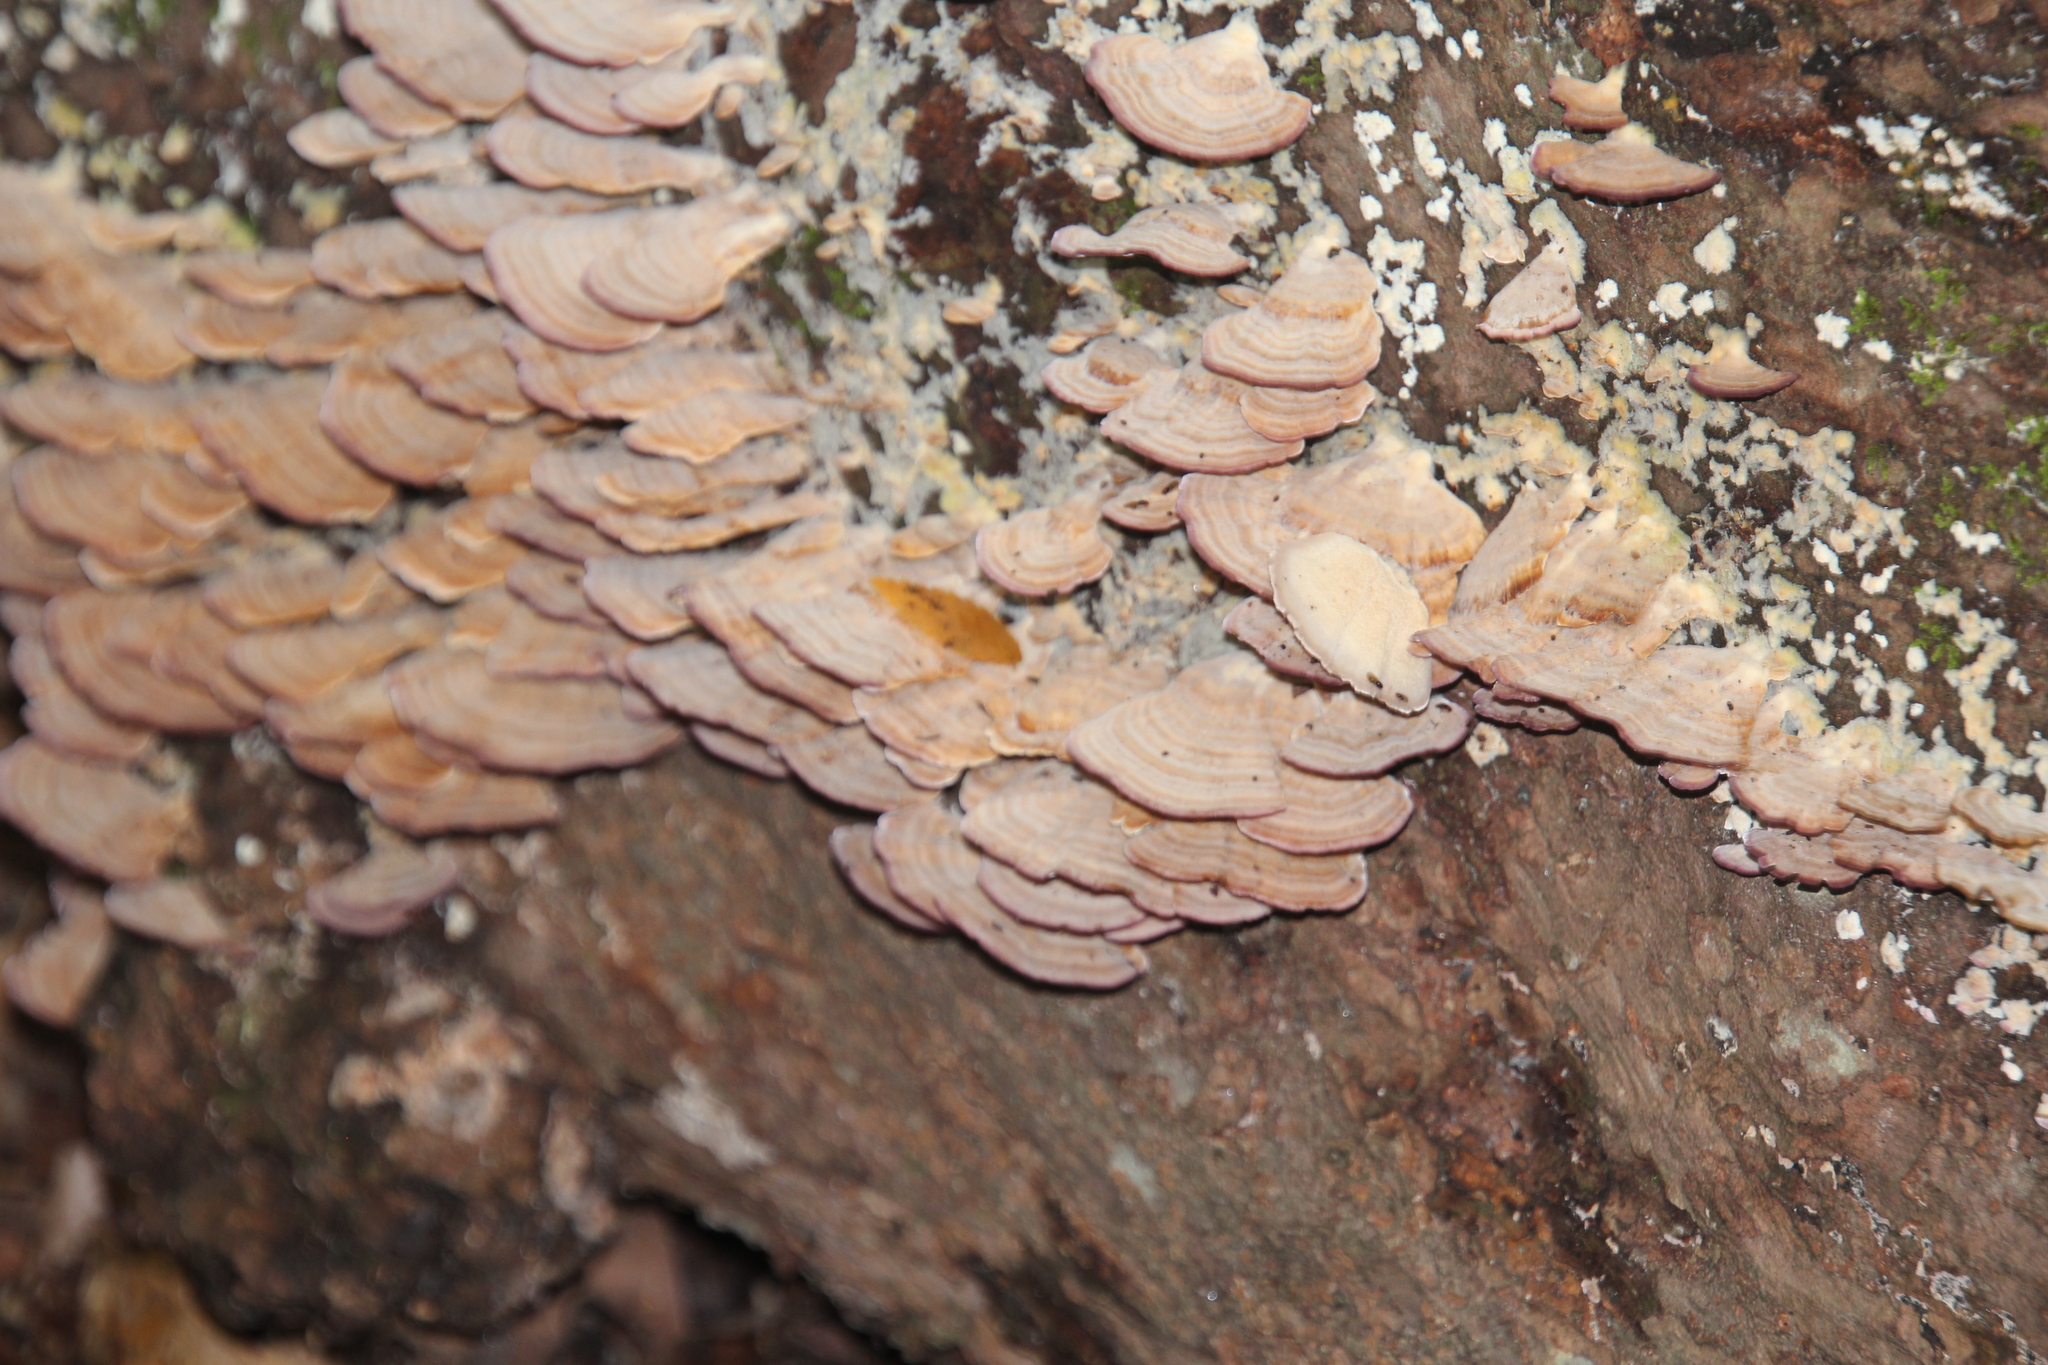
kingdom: Fungi
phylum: Basidiomycota
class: Agaricomycetes
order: Hymenochaetales
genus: Trichaptum
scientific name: Trichaptum biforme
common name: Violet-toothed polypore
